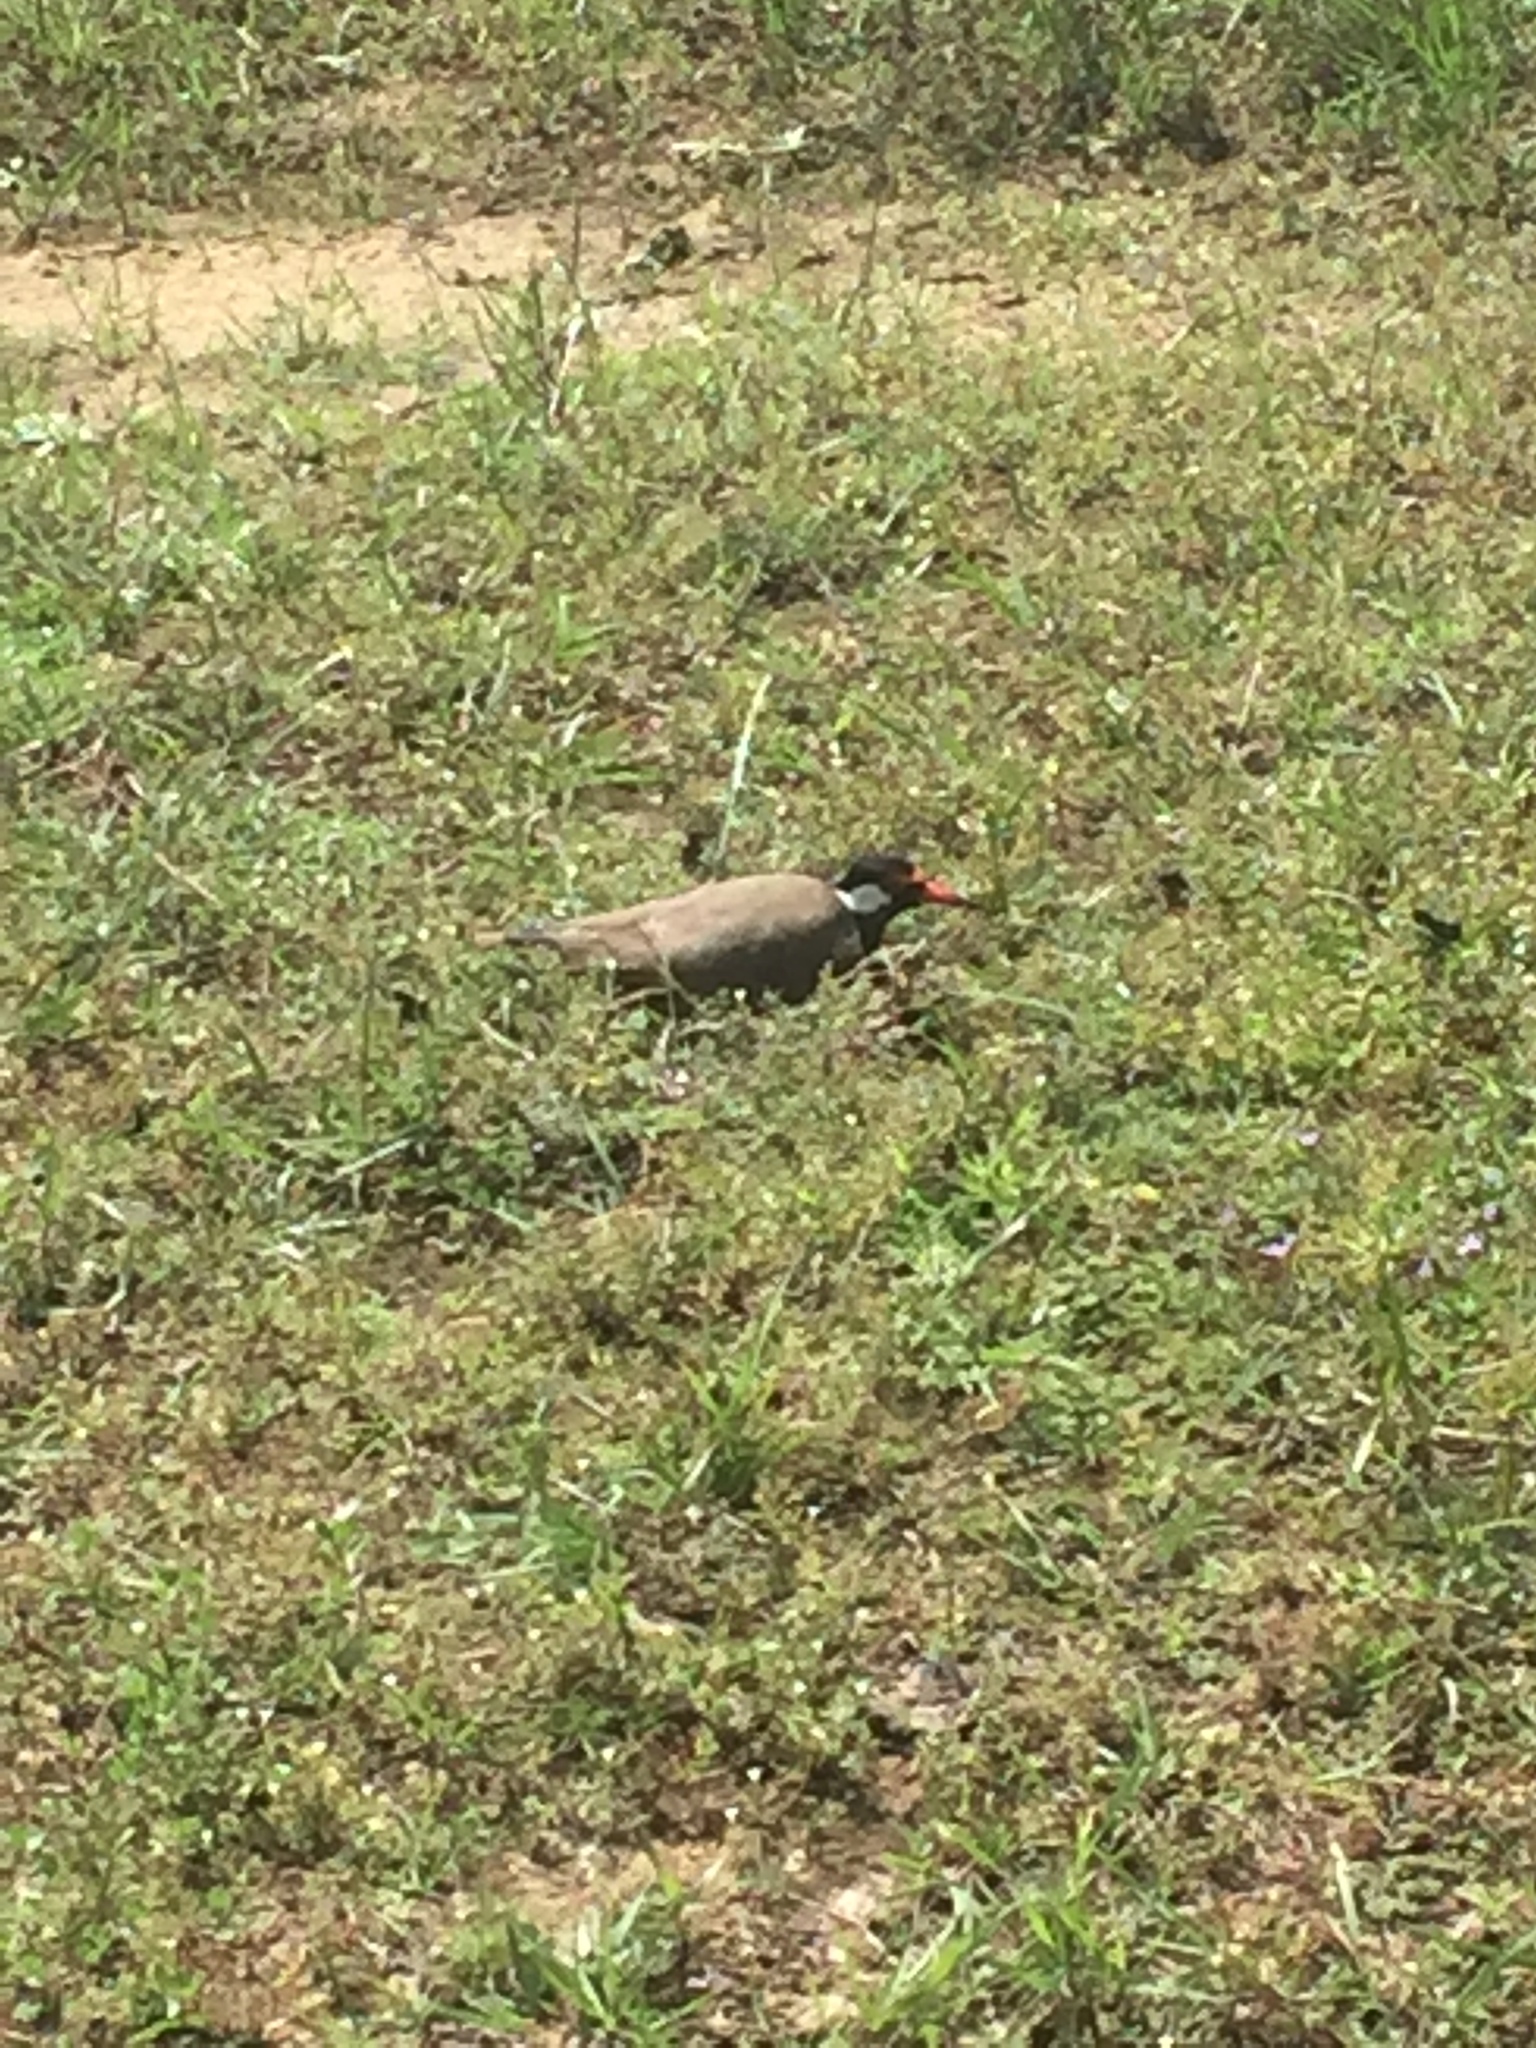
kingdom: Animalia
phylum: Chordata
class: Aves
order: Charadriiformes
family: Charadriidae
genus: Vanellus
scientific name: Vanellus indicus
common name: Red-wattled lapwing
